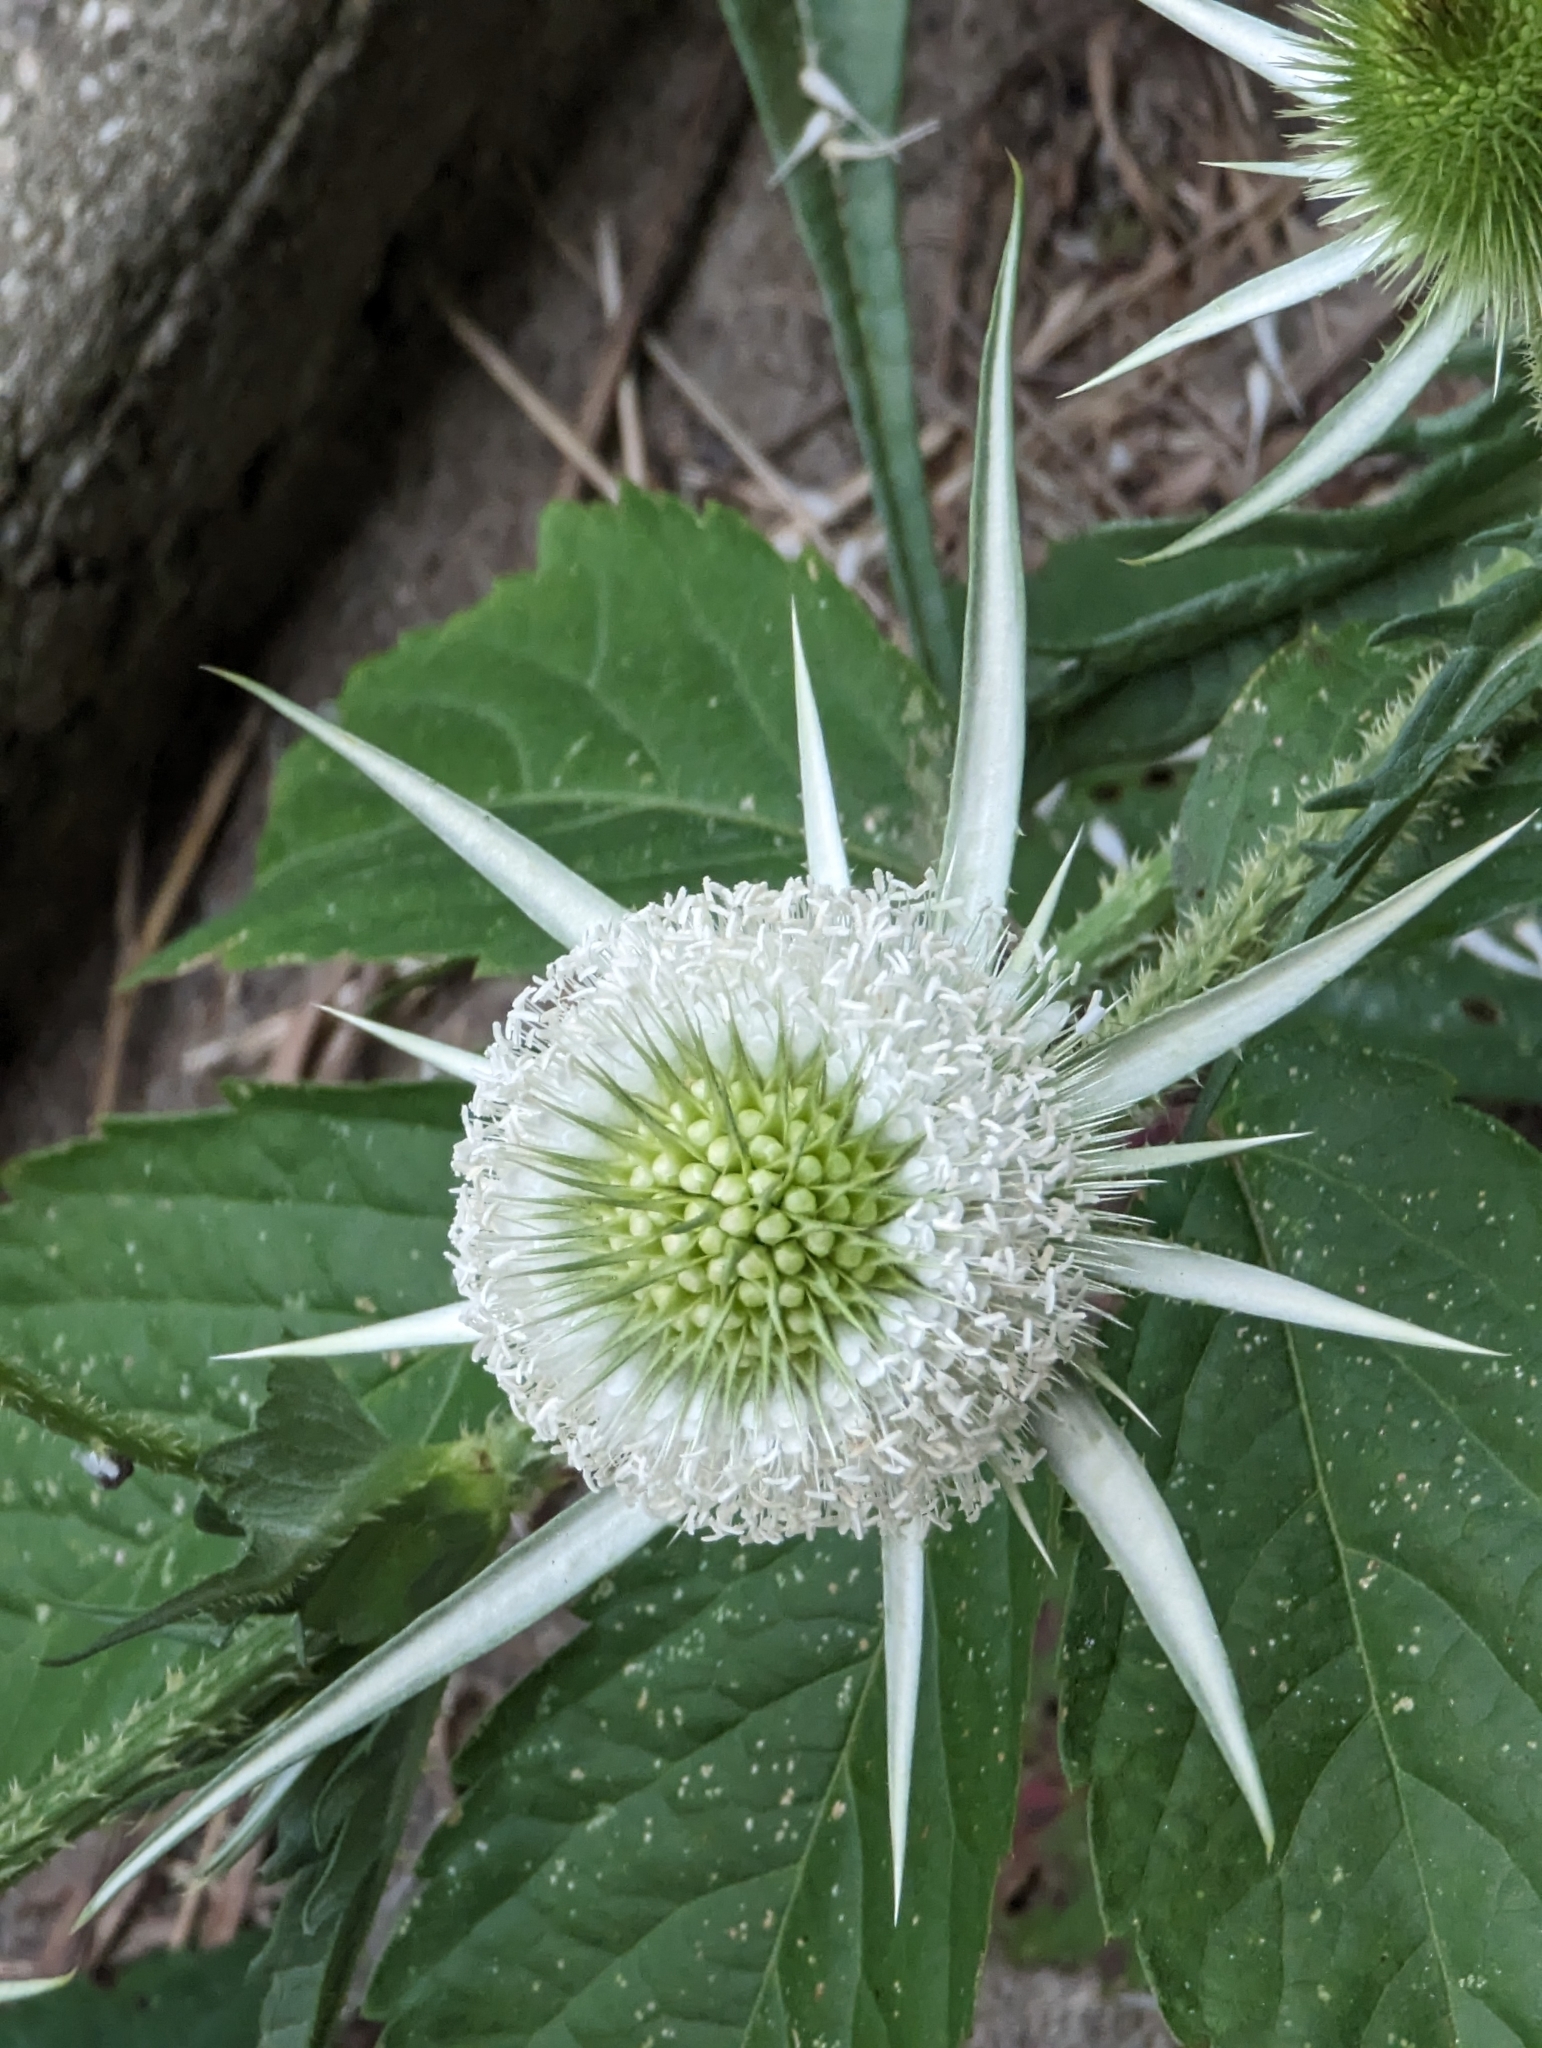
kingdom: Plantae
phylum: Tracheophyta
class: Magnoliopsida
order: Dipsacales
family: Caprifoliaceae
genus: Dipsacus
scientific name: Dipsacus laciniatus
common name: Cut-leaved teasel
